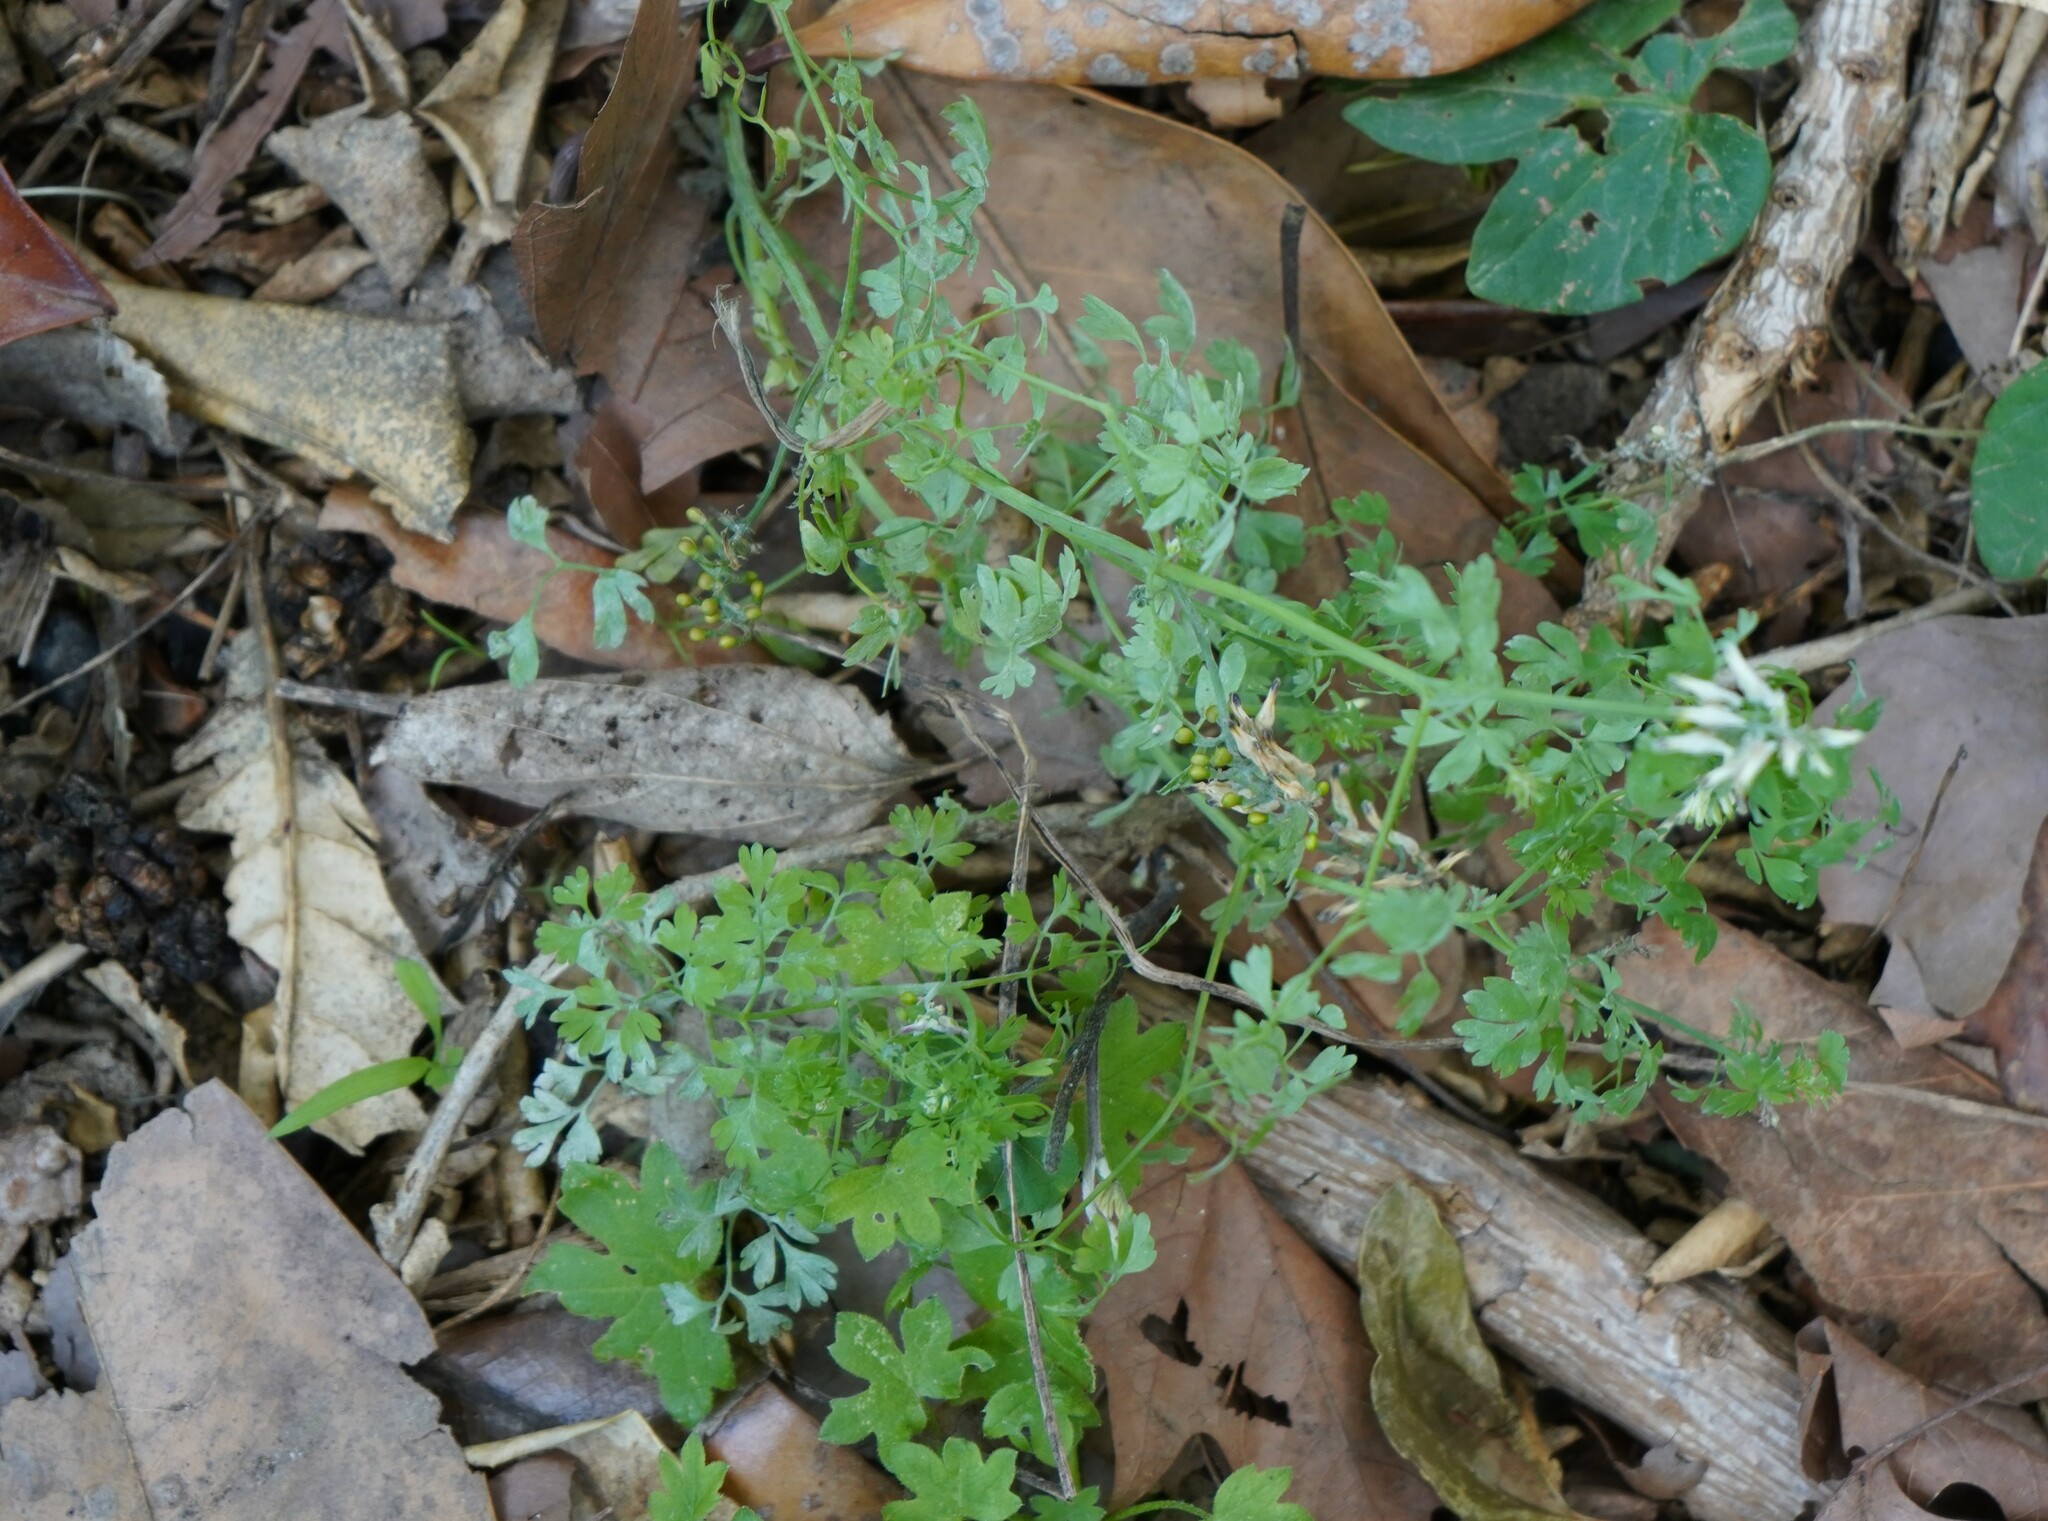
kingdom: Plantae
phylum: Tracheophyta
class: Magnoliopsida
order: Ranunculales
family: Papaveraceae
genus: Fumaria
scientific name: Fumaria capreolata
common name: White ramping-fumitory
